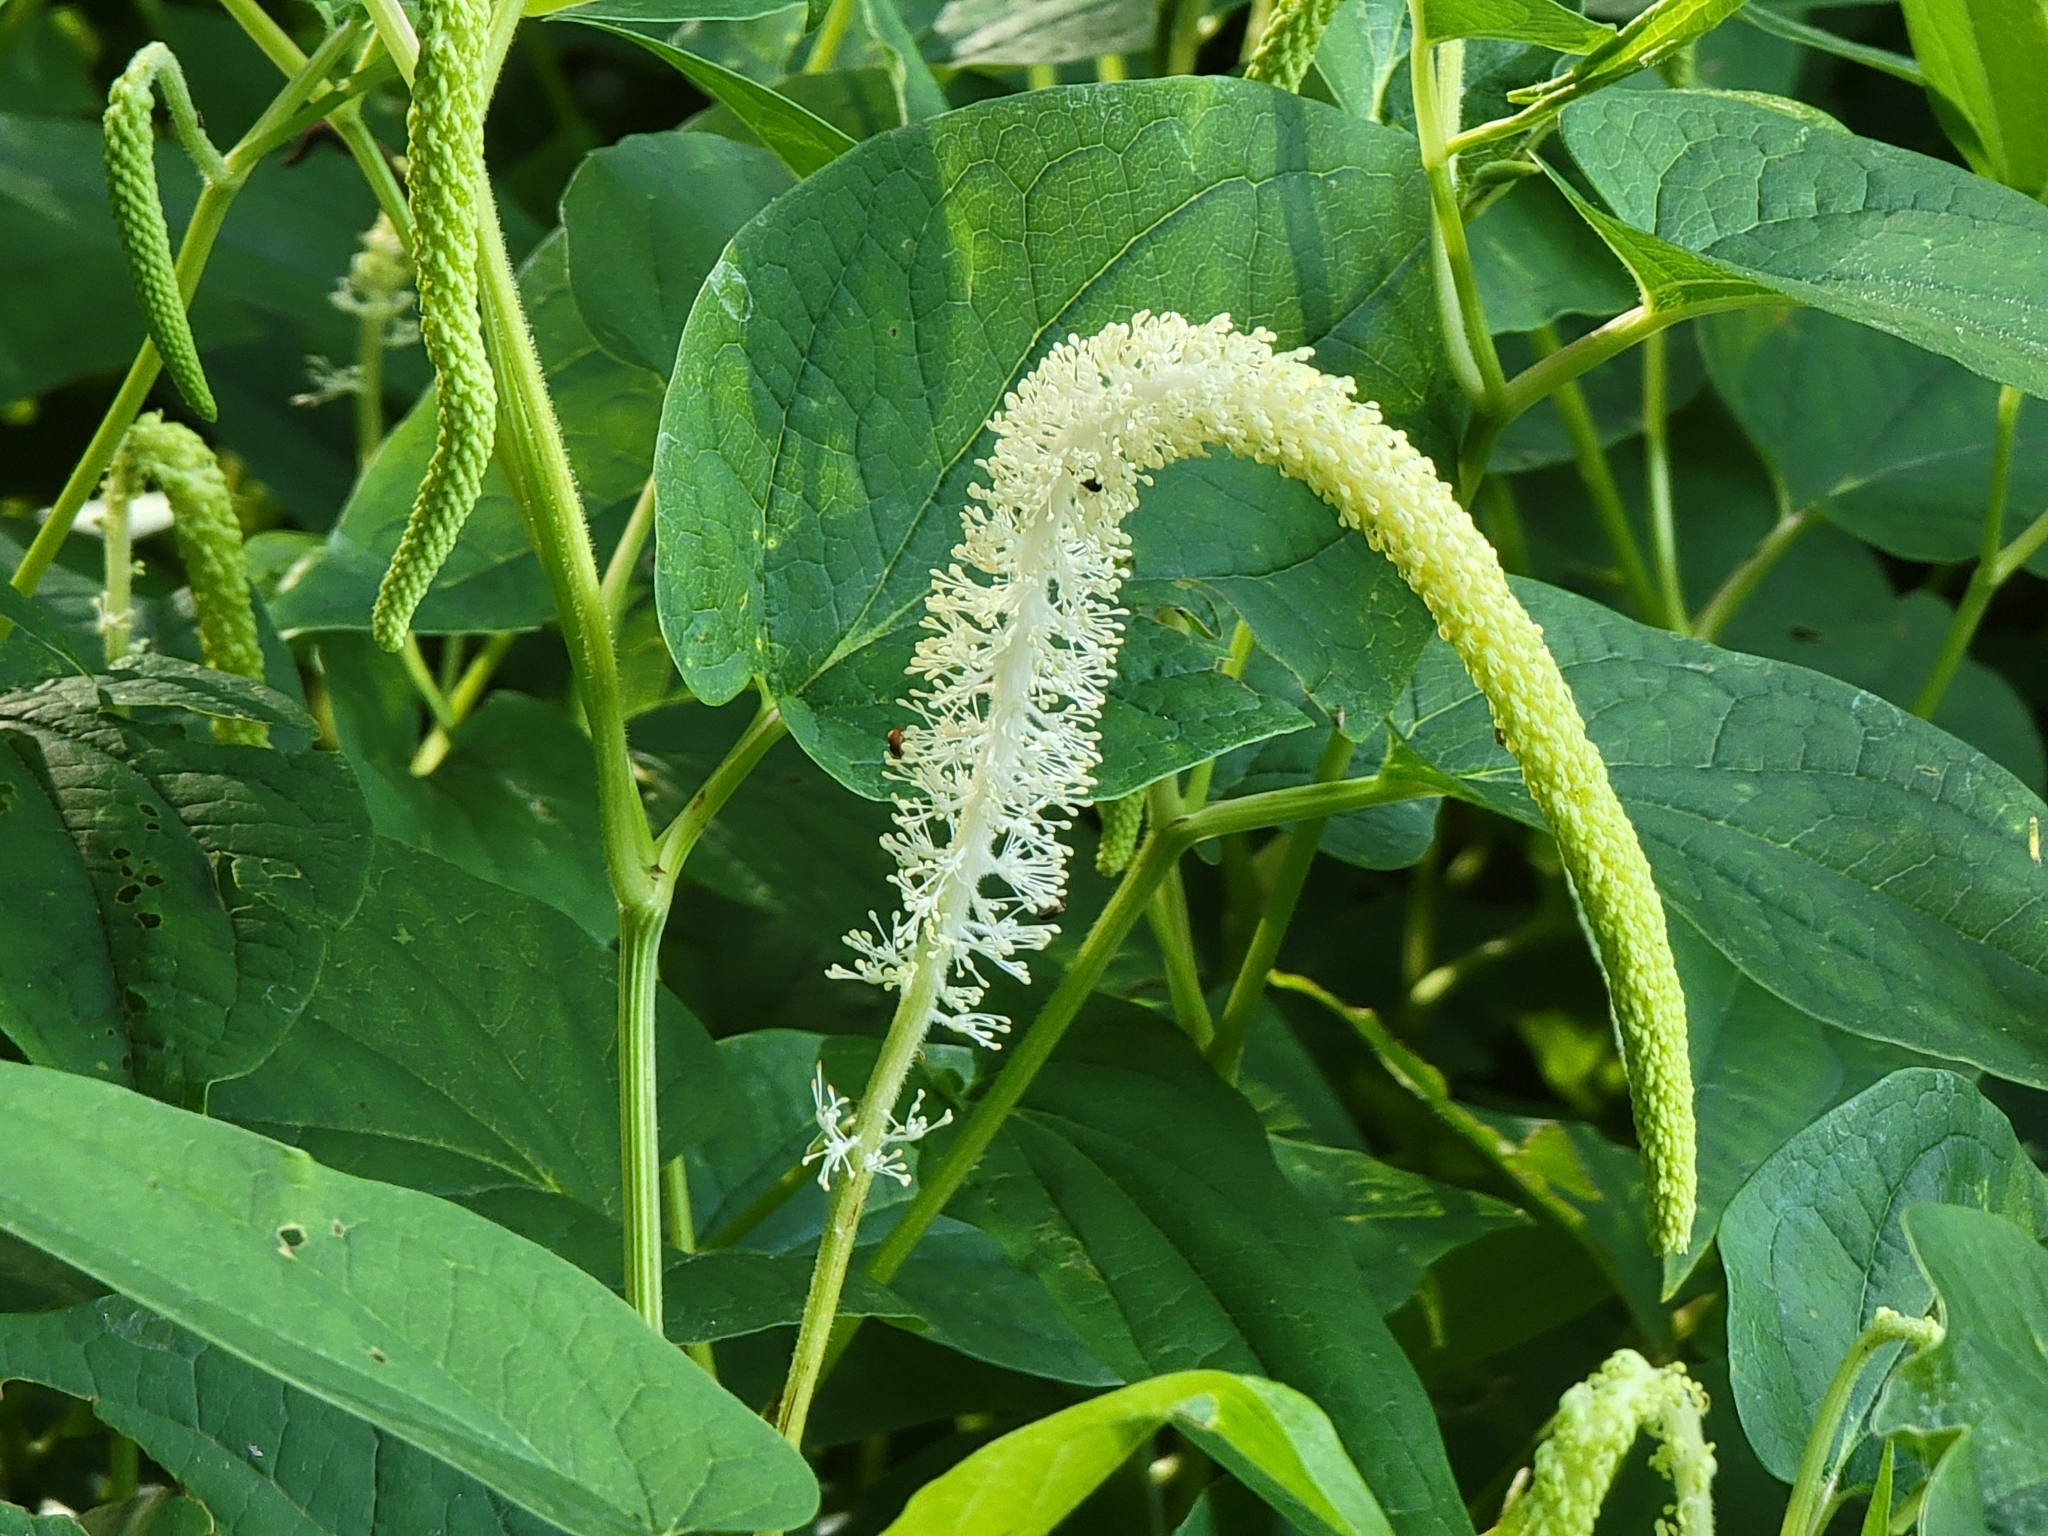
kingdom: Plantae
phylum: Tracheophyta
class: Magnoliopsida
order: Piperales
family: Saururaceae
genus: Saururus
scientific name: Saururus cernuus
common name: Lizard's-tail
